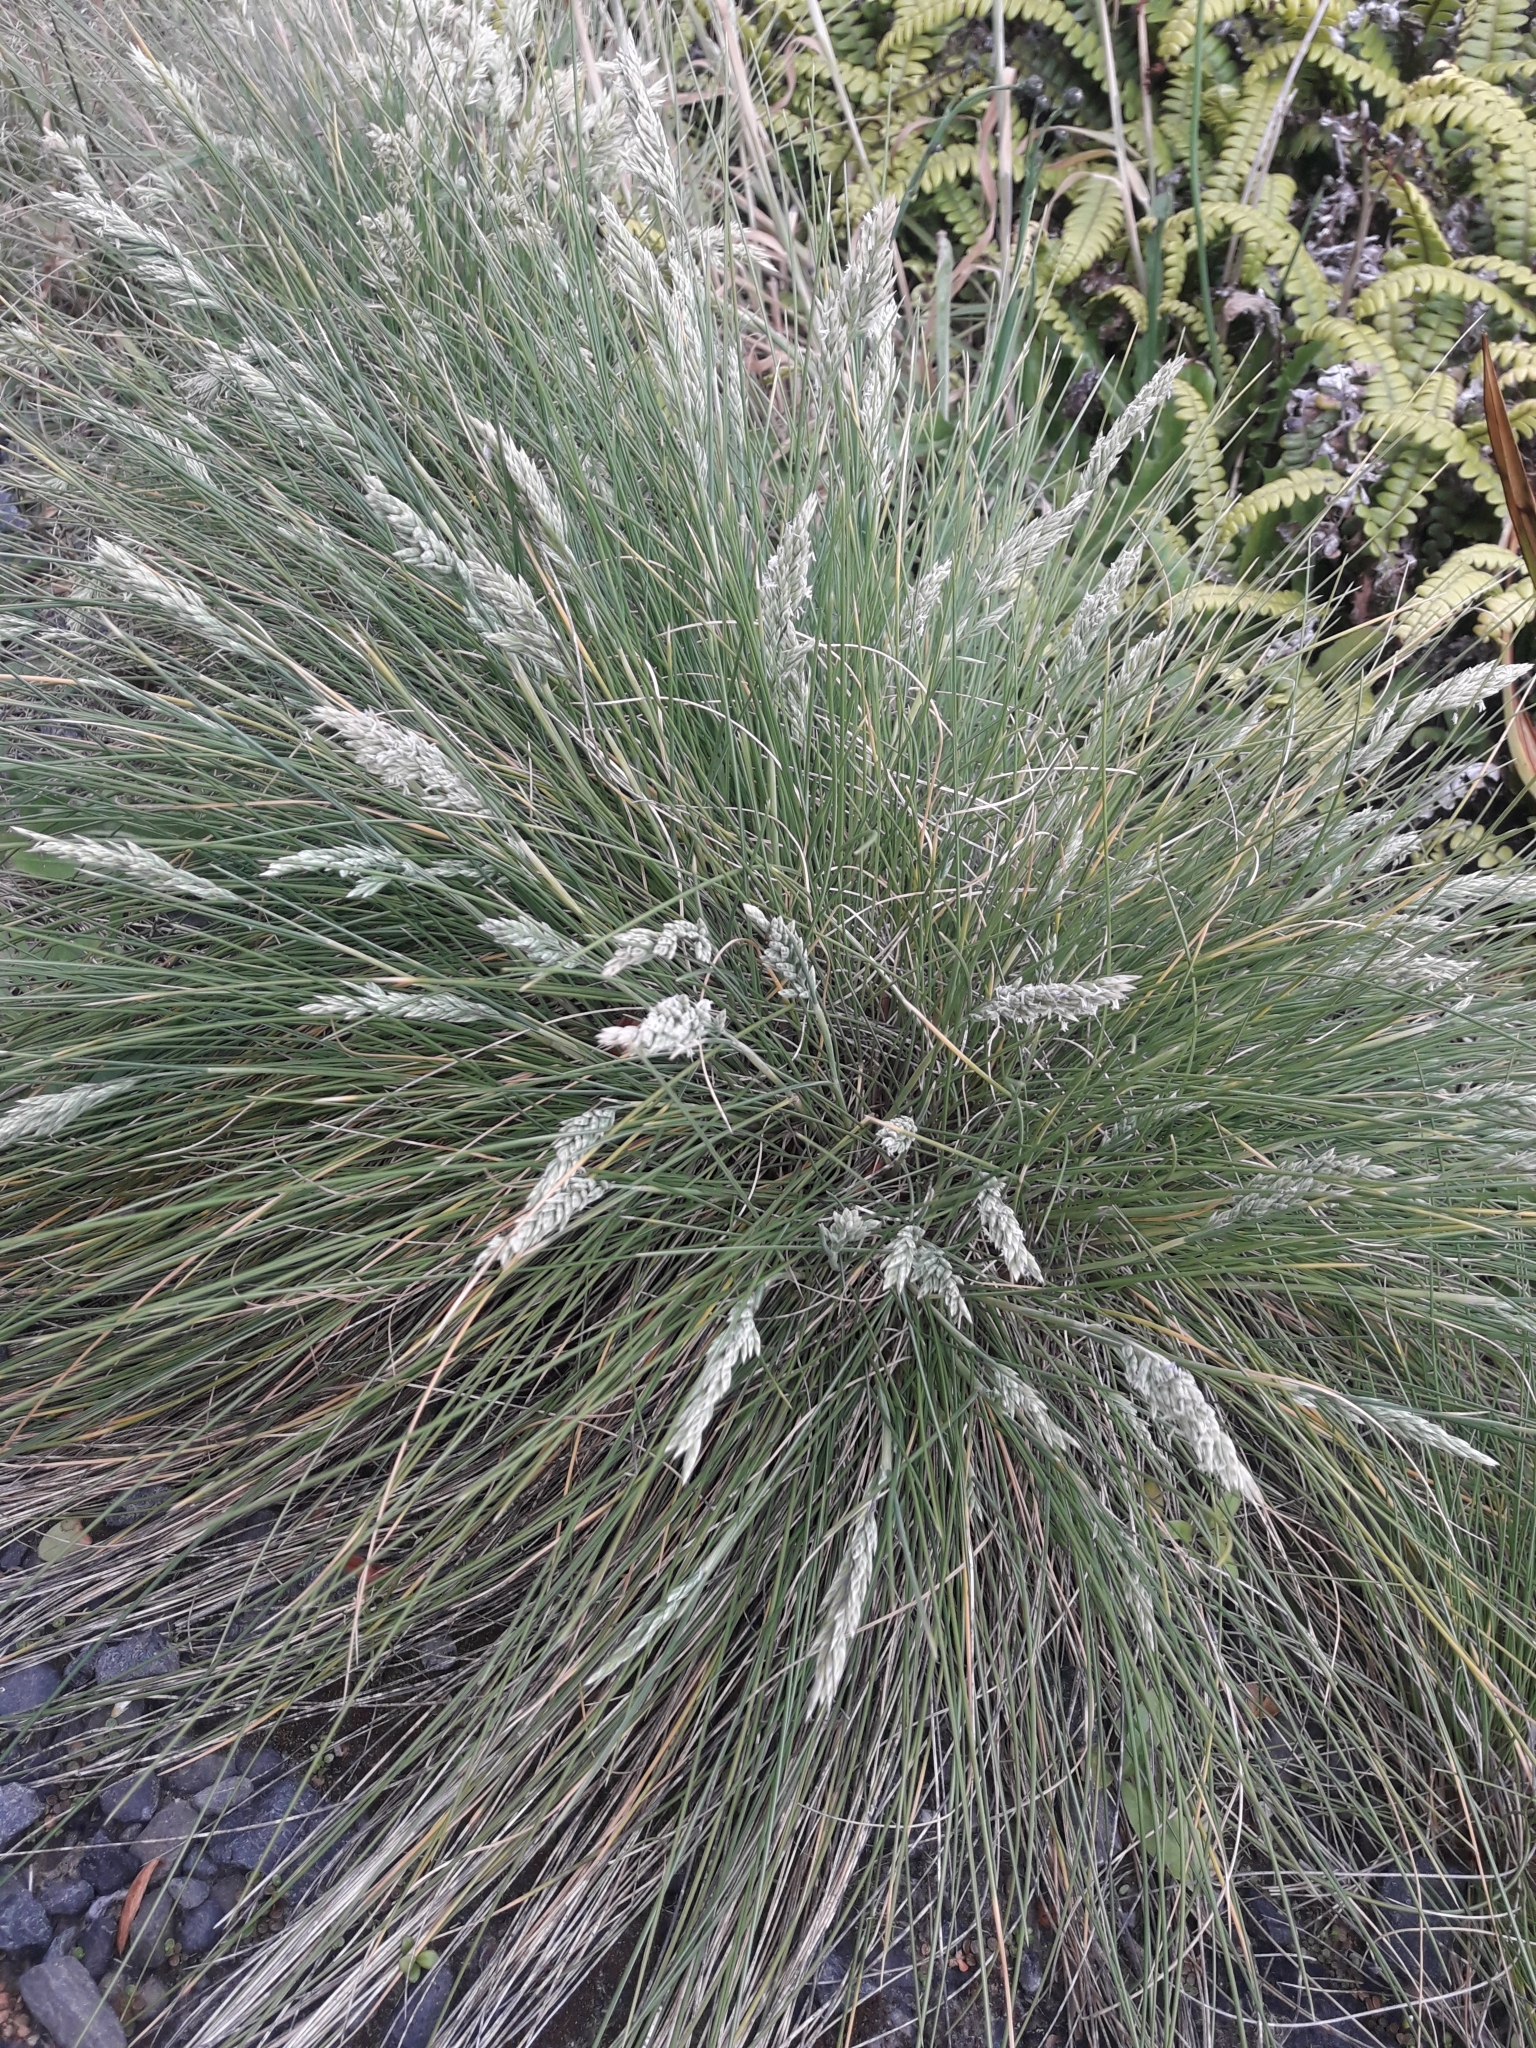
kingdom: Plantae
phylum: Tracheophyta
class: Liliopsida
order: Poales
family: Poaceae
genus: Poa
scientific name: Poa astonii
